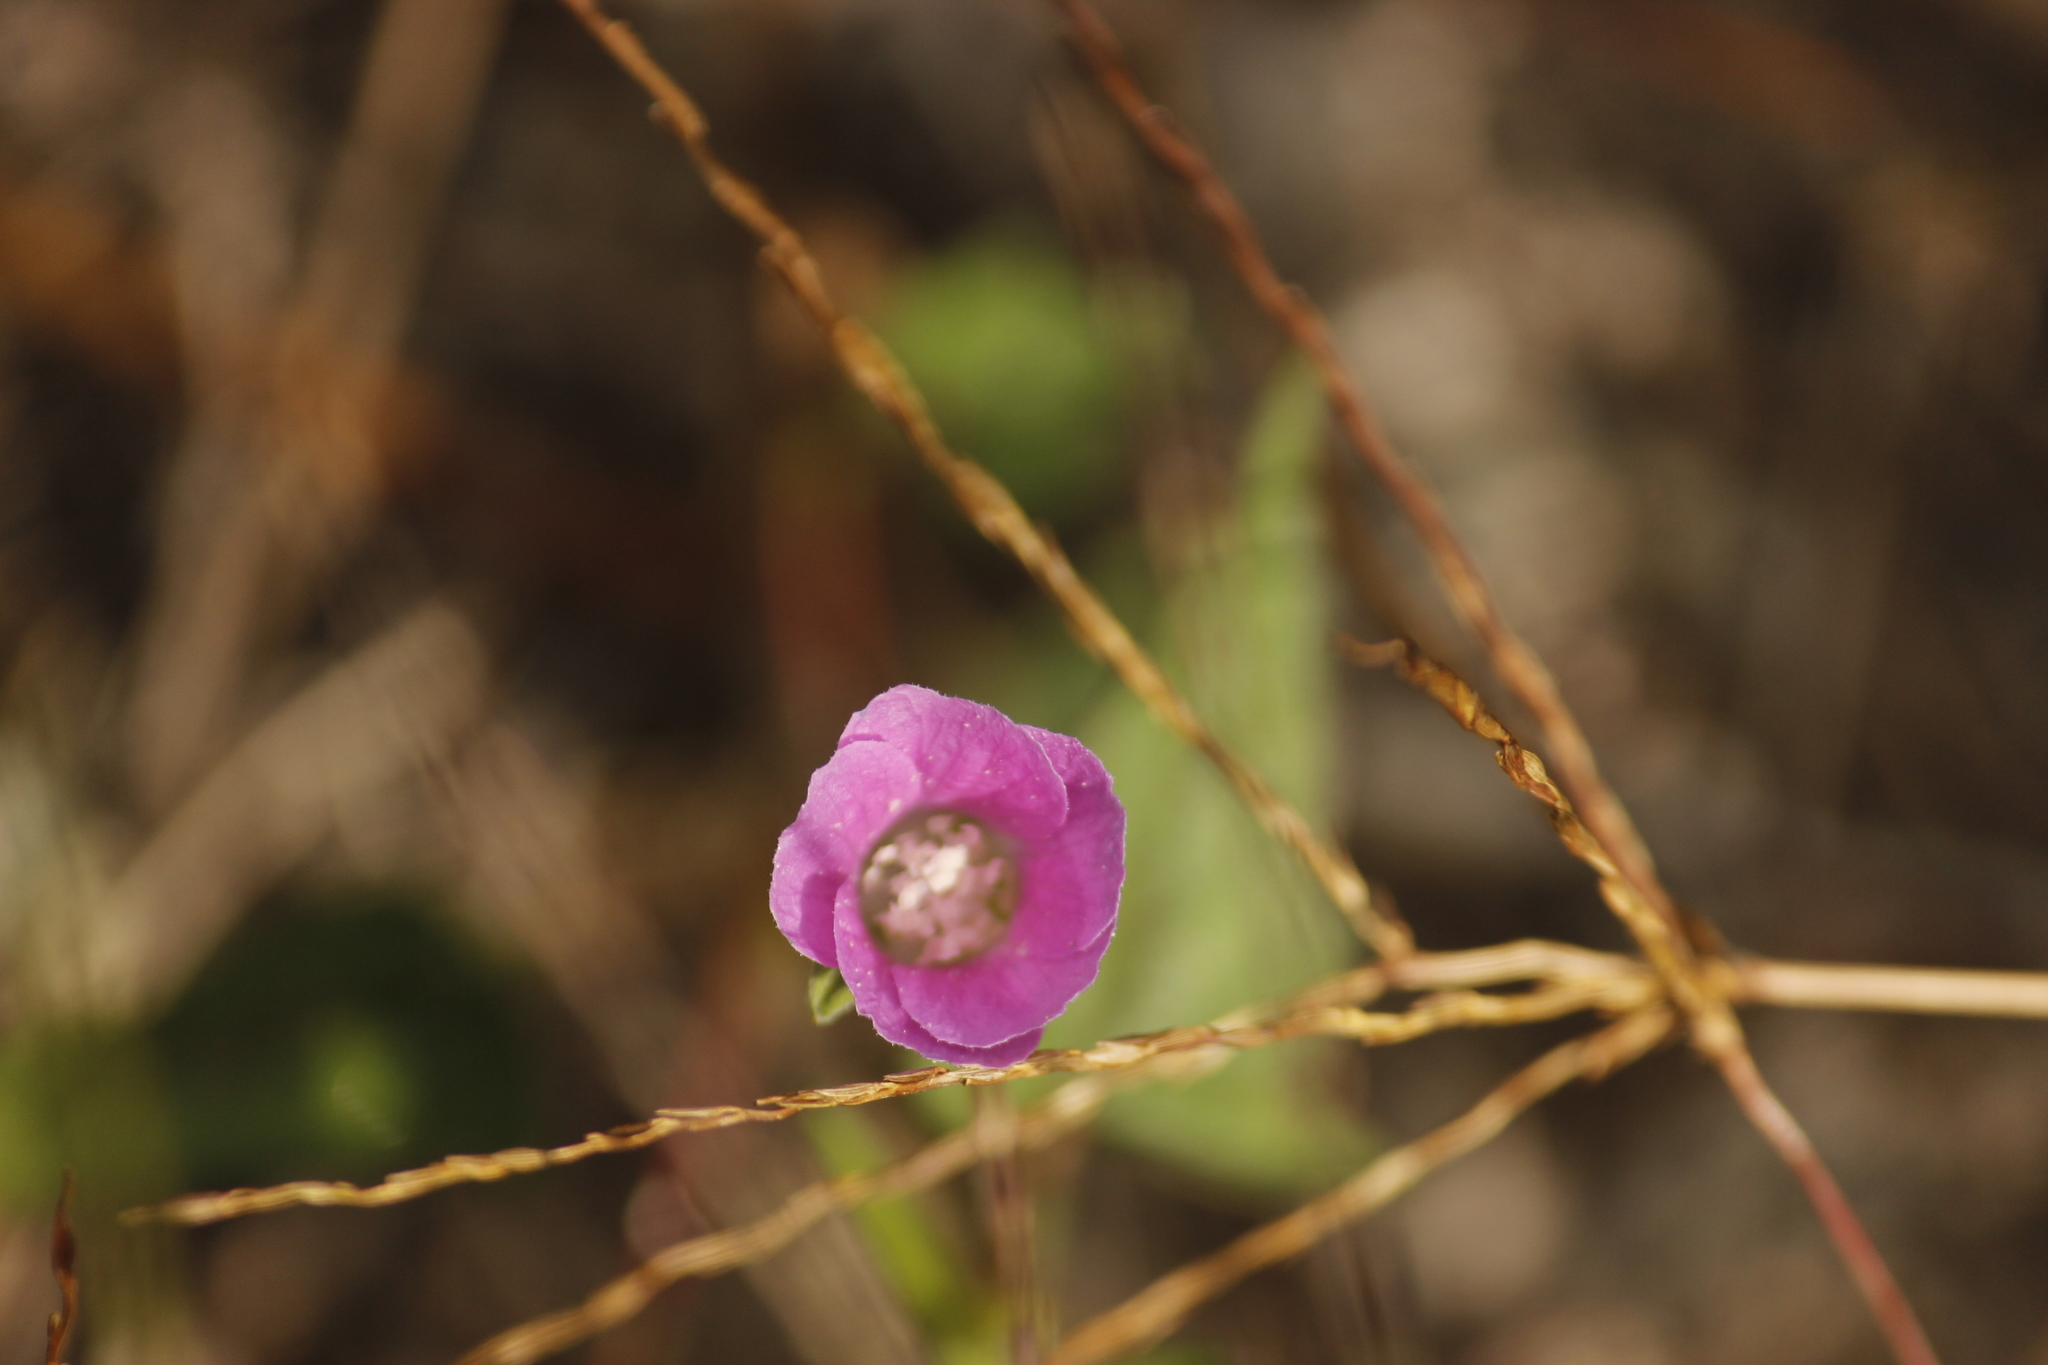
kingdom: Plantae
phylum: Tracheophyta
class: Magnoliopsida
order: Malvales
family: Malvaceae
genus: Anoda
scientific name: Anoda cristata
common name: Spurred anoda
